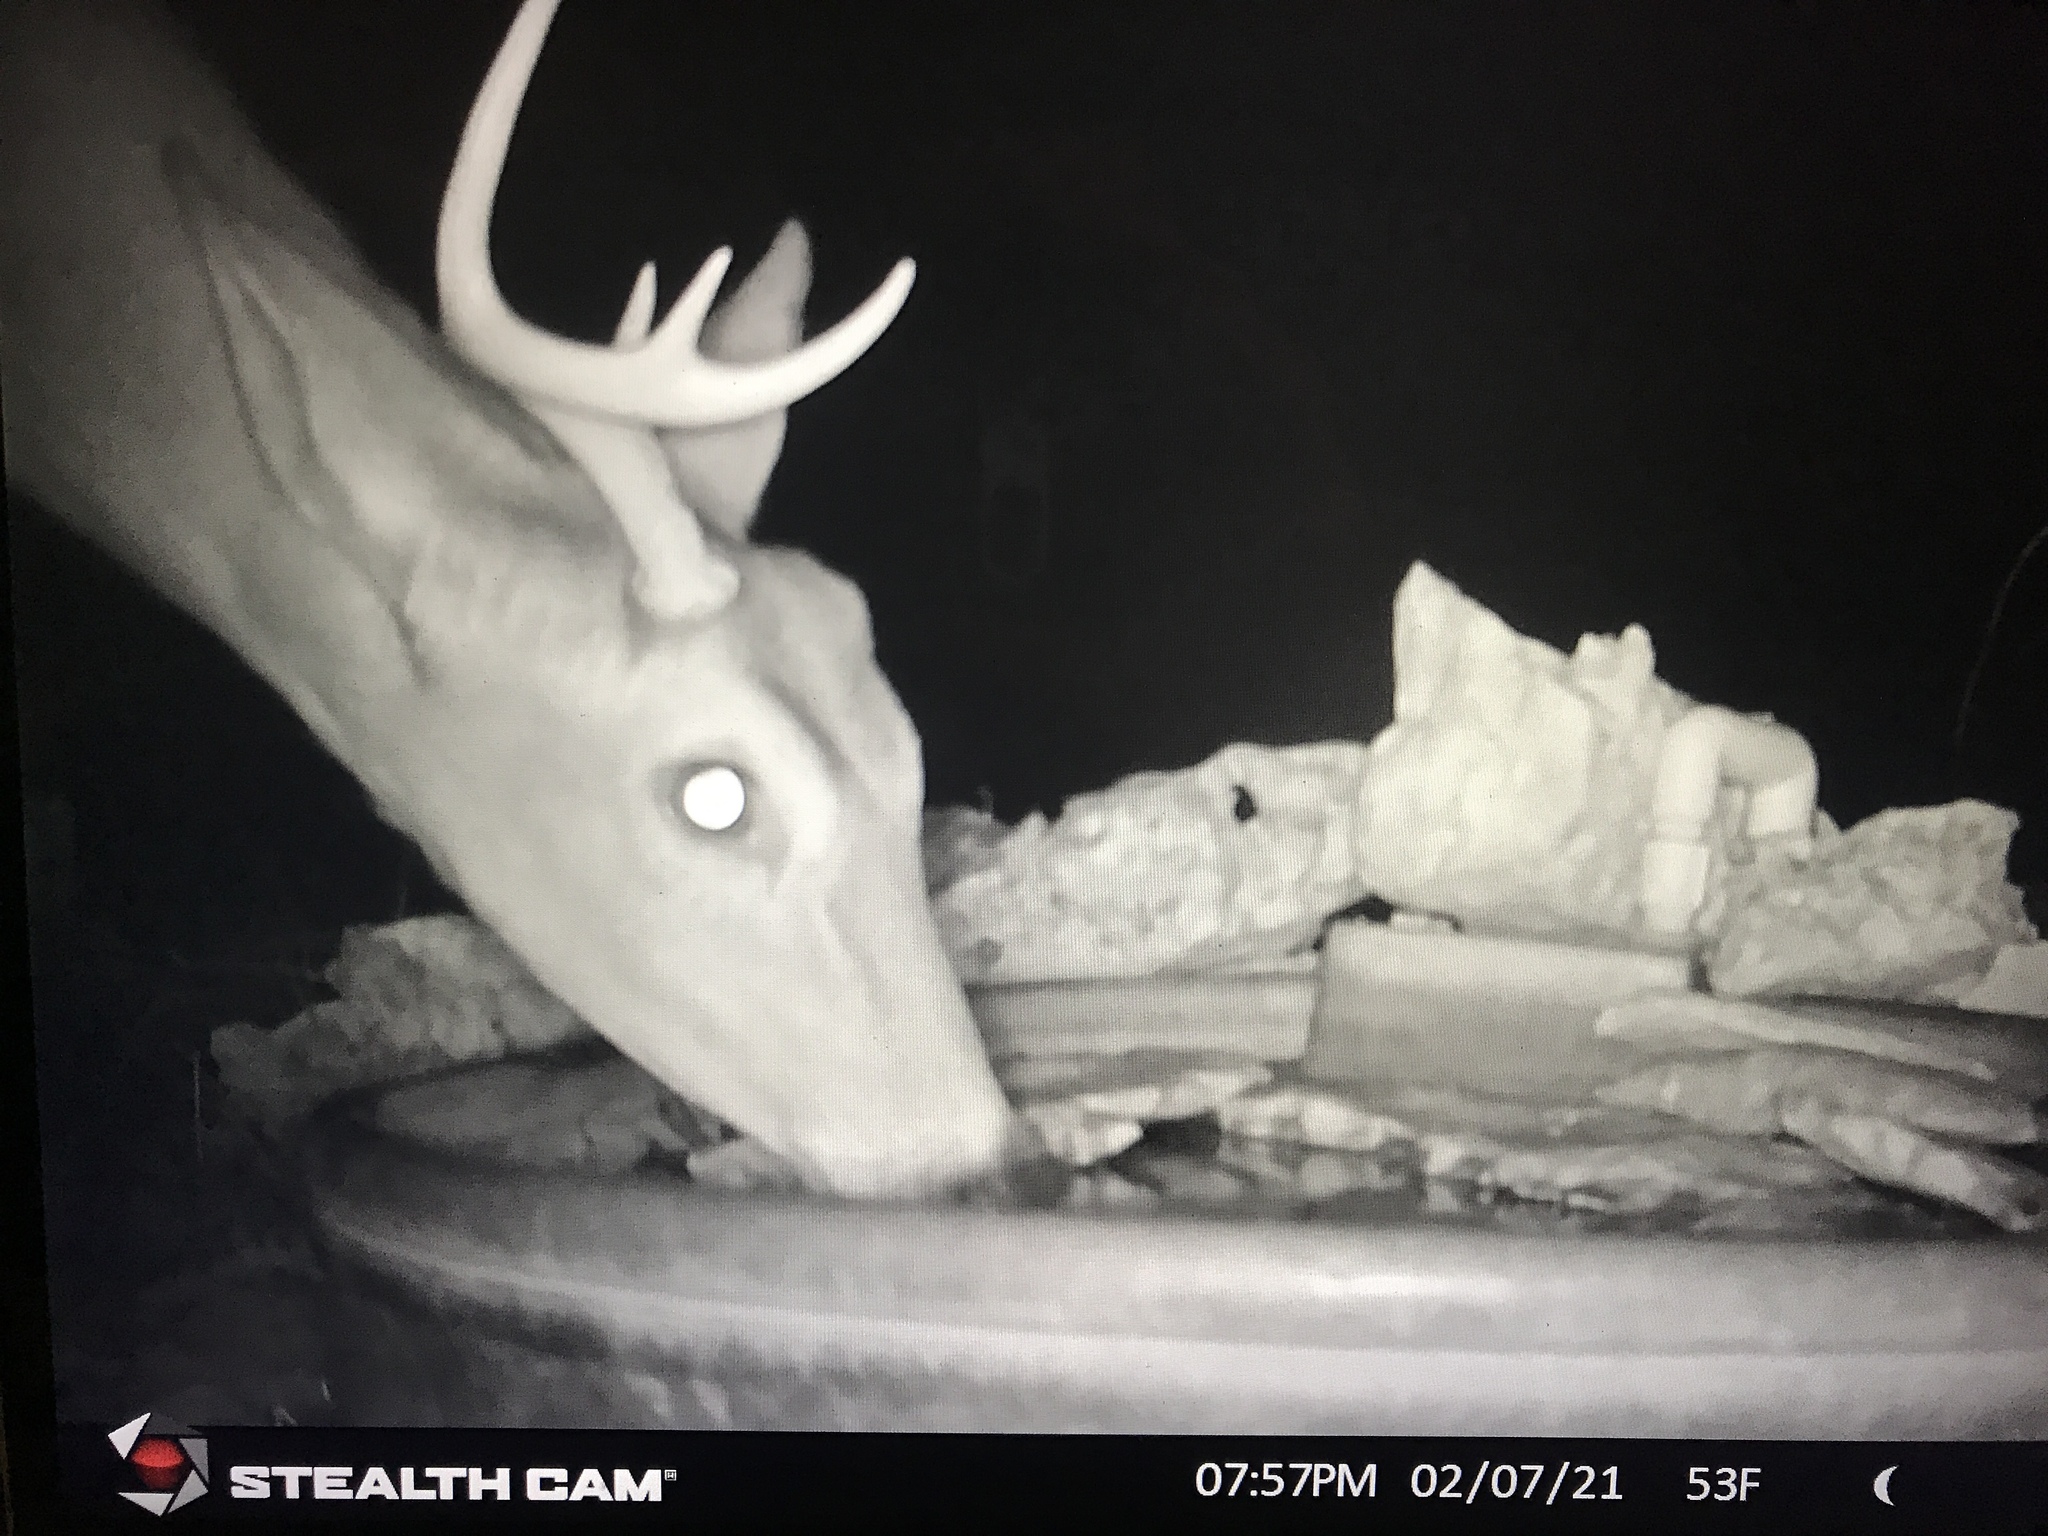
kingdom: Animalia
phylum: Chordata
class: Mammalia
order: Artiodactyla
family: Cervidae
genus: Odocoileus
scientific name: Odocoileus virginianus
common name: White-tailed deer
